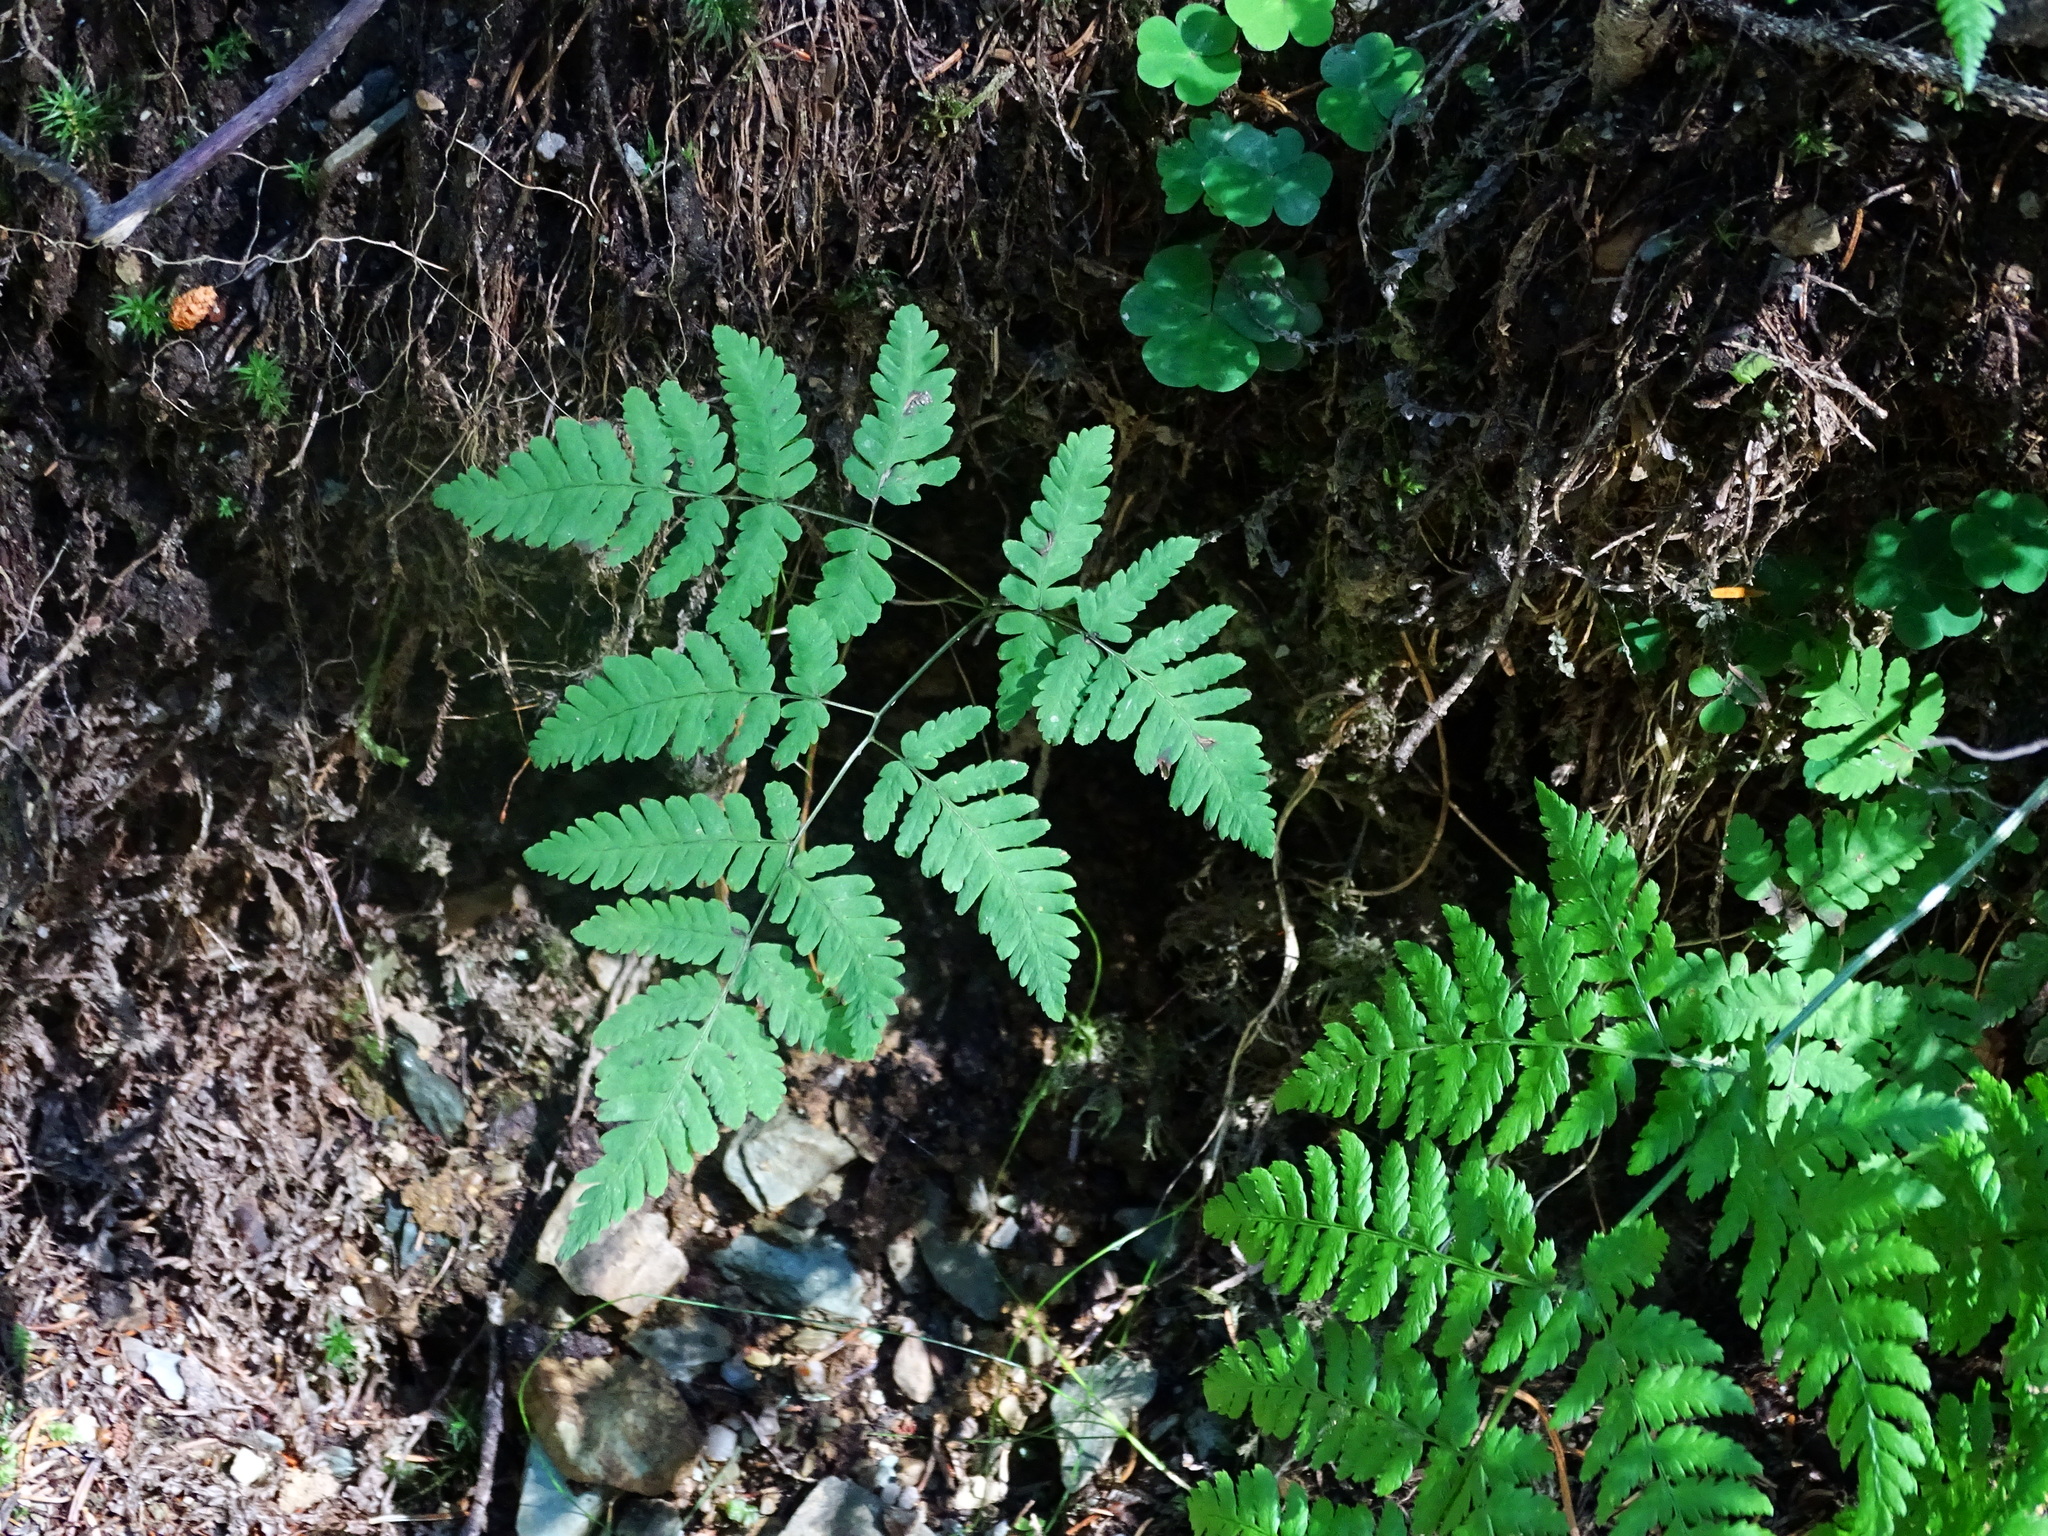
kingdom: Plantae
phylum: Tracheophyta
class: Polypodiopsida
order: Polypodiales
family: Cystopteridaceae
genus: Gymnocarpium
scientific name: Gymnocarpium robertianum
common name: Limestone fern
